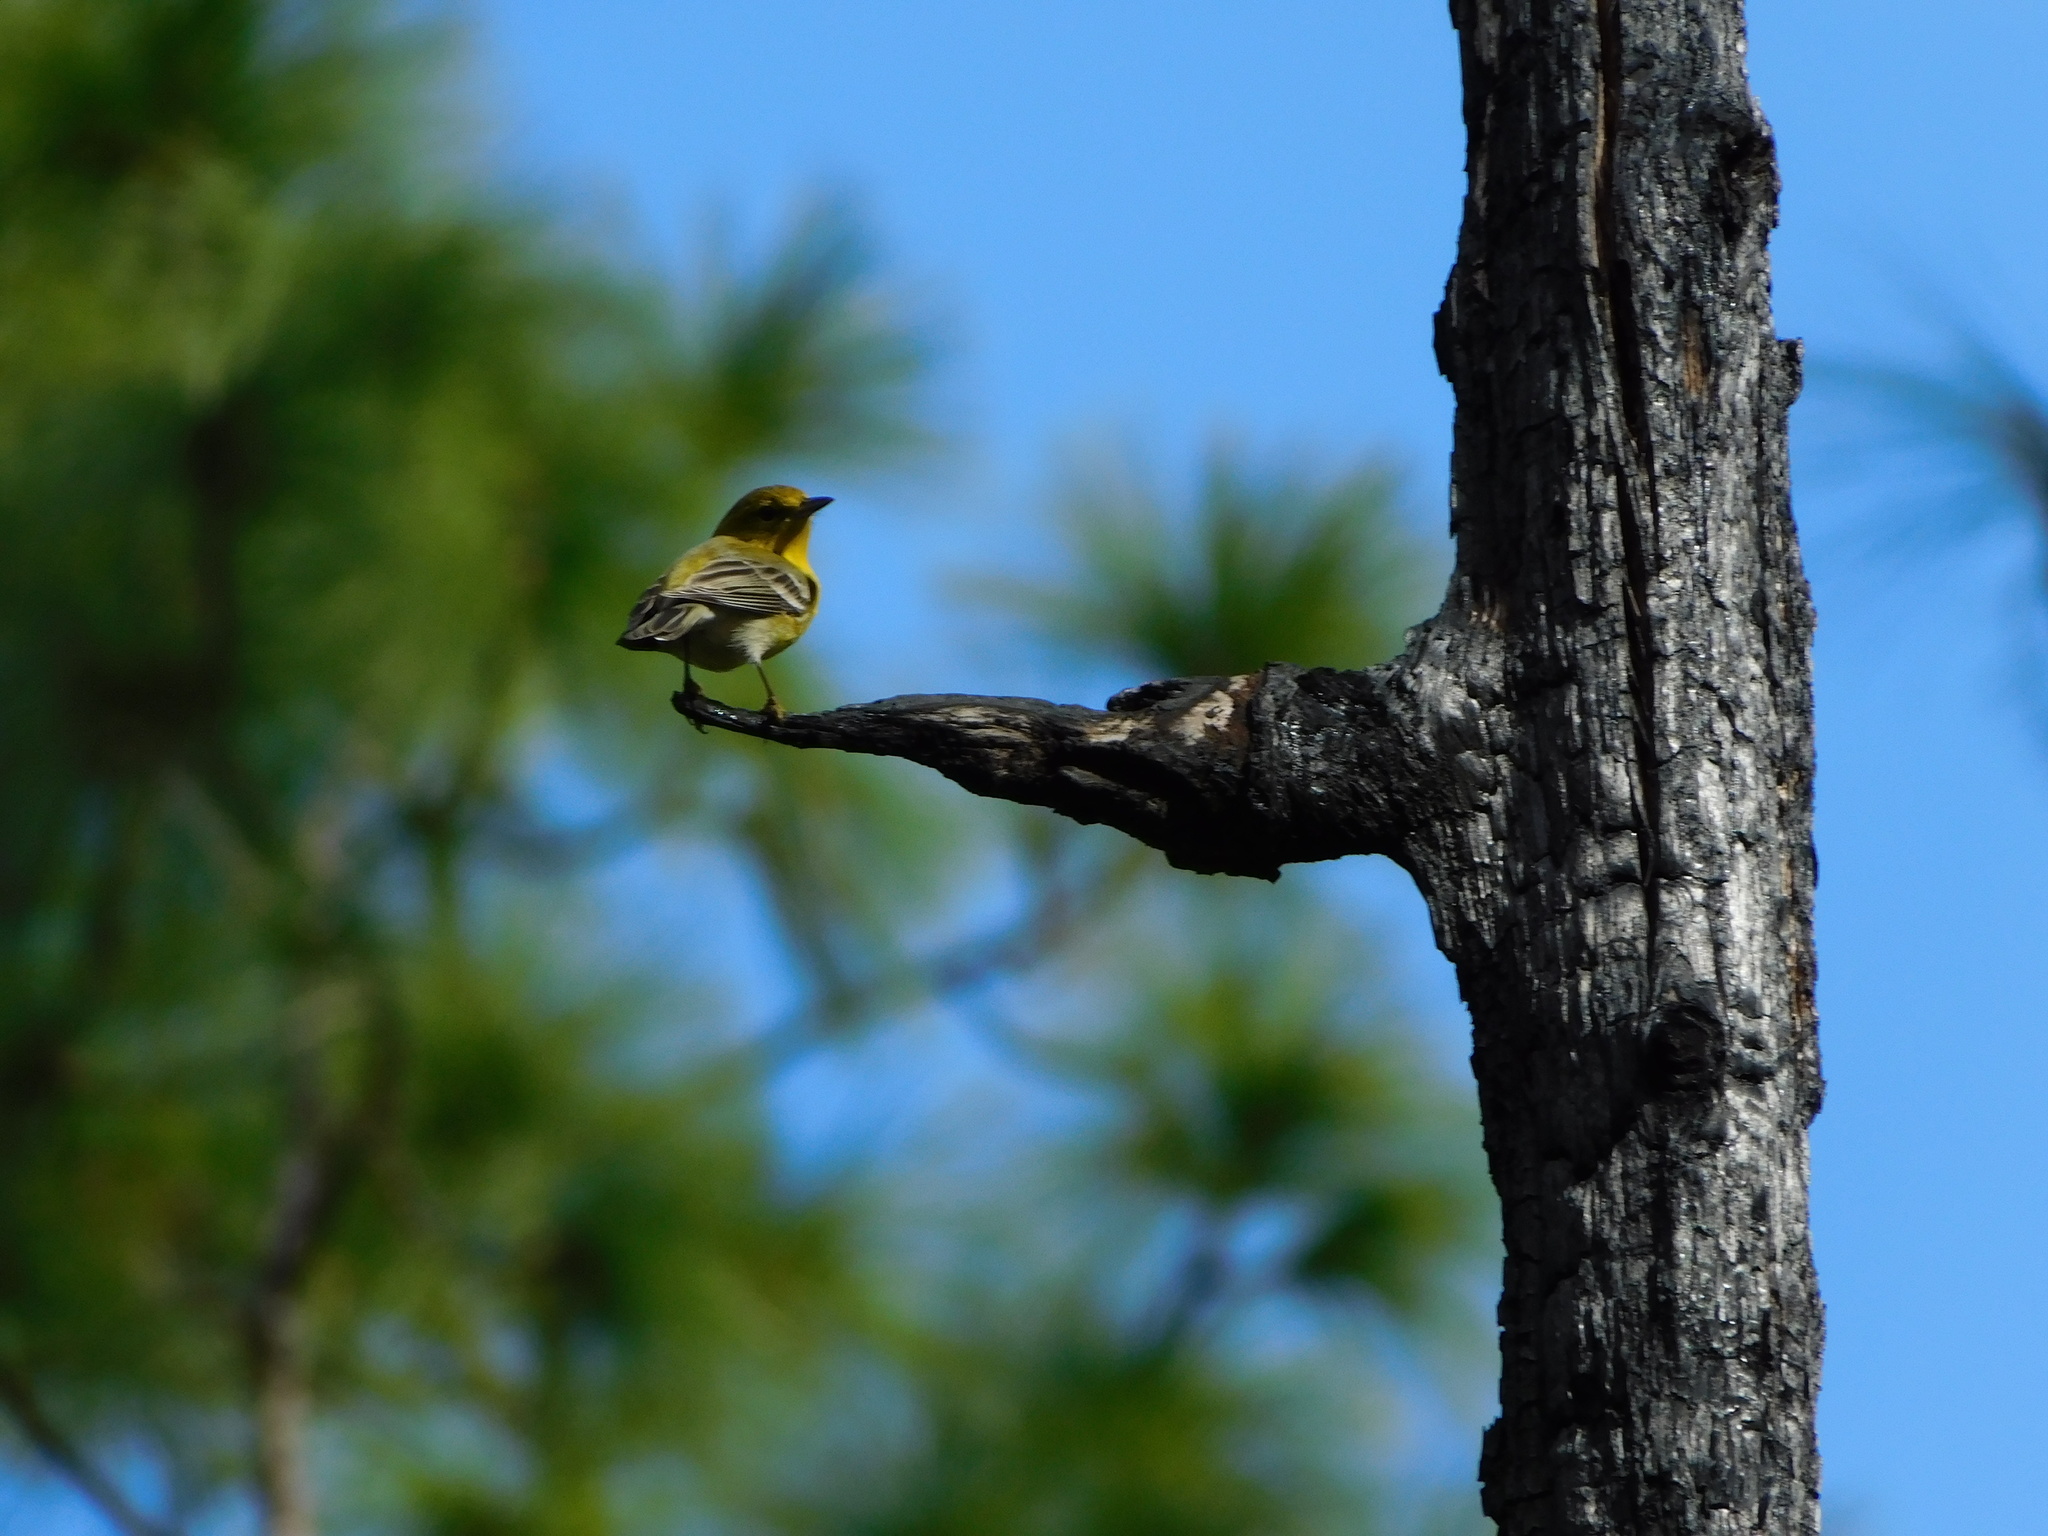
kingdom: Animalia
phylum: Chordata
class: Aves
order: Passeriformes
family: Parulidae
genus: Setophaga
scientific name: Setophaga pinus
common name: Pine warbler
